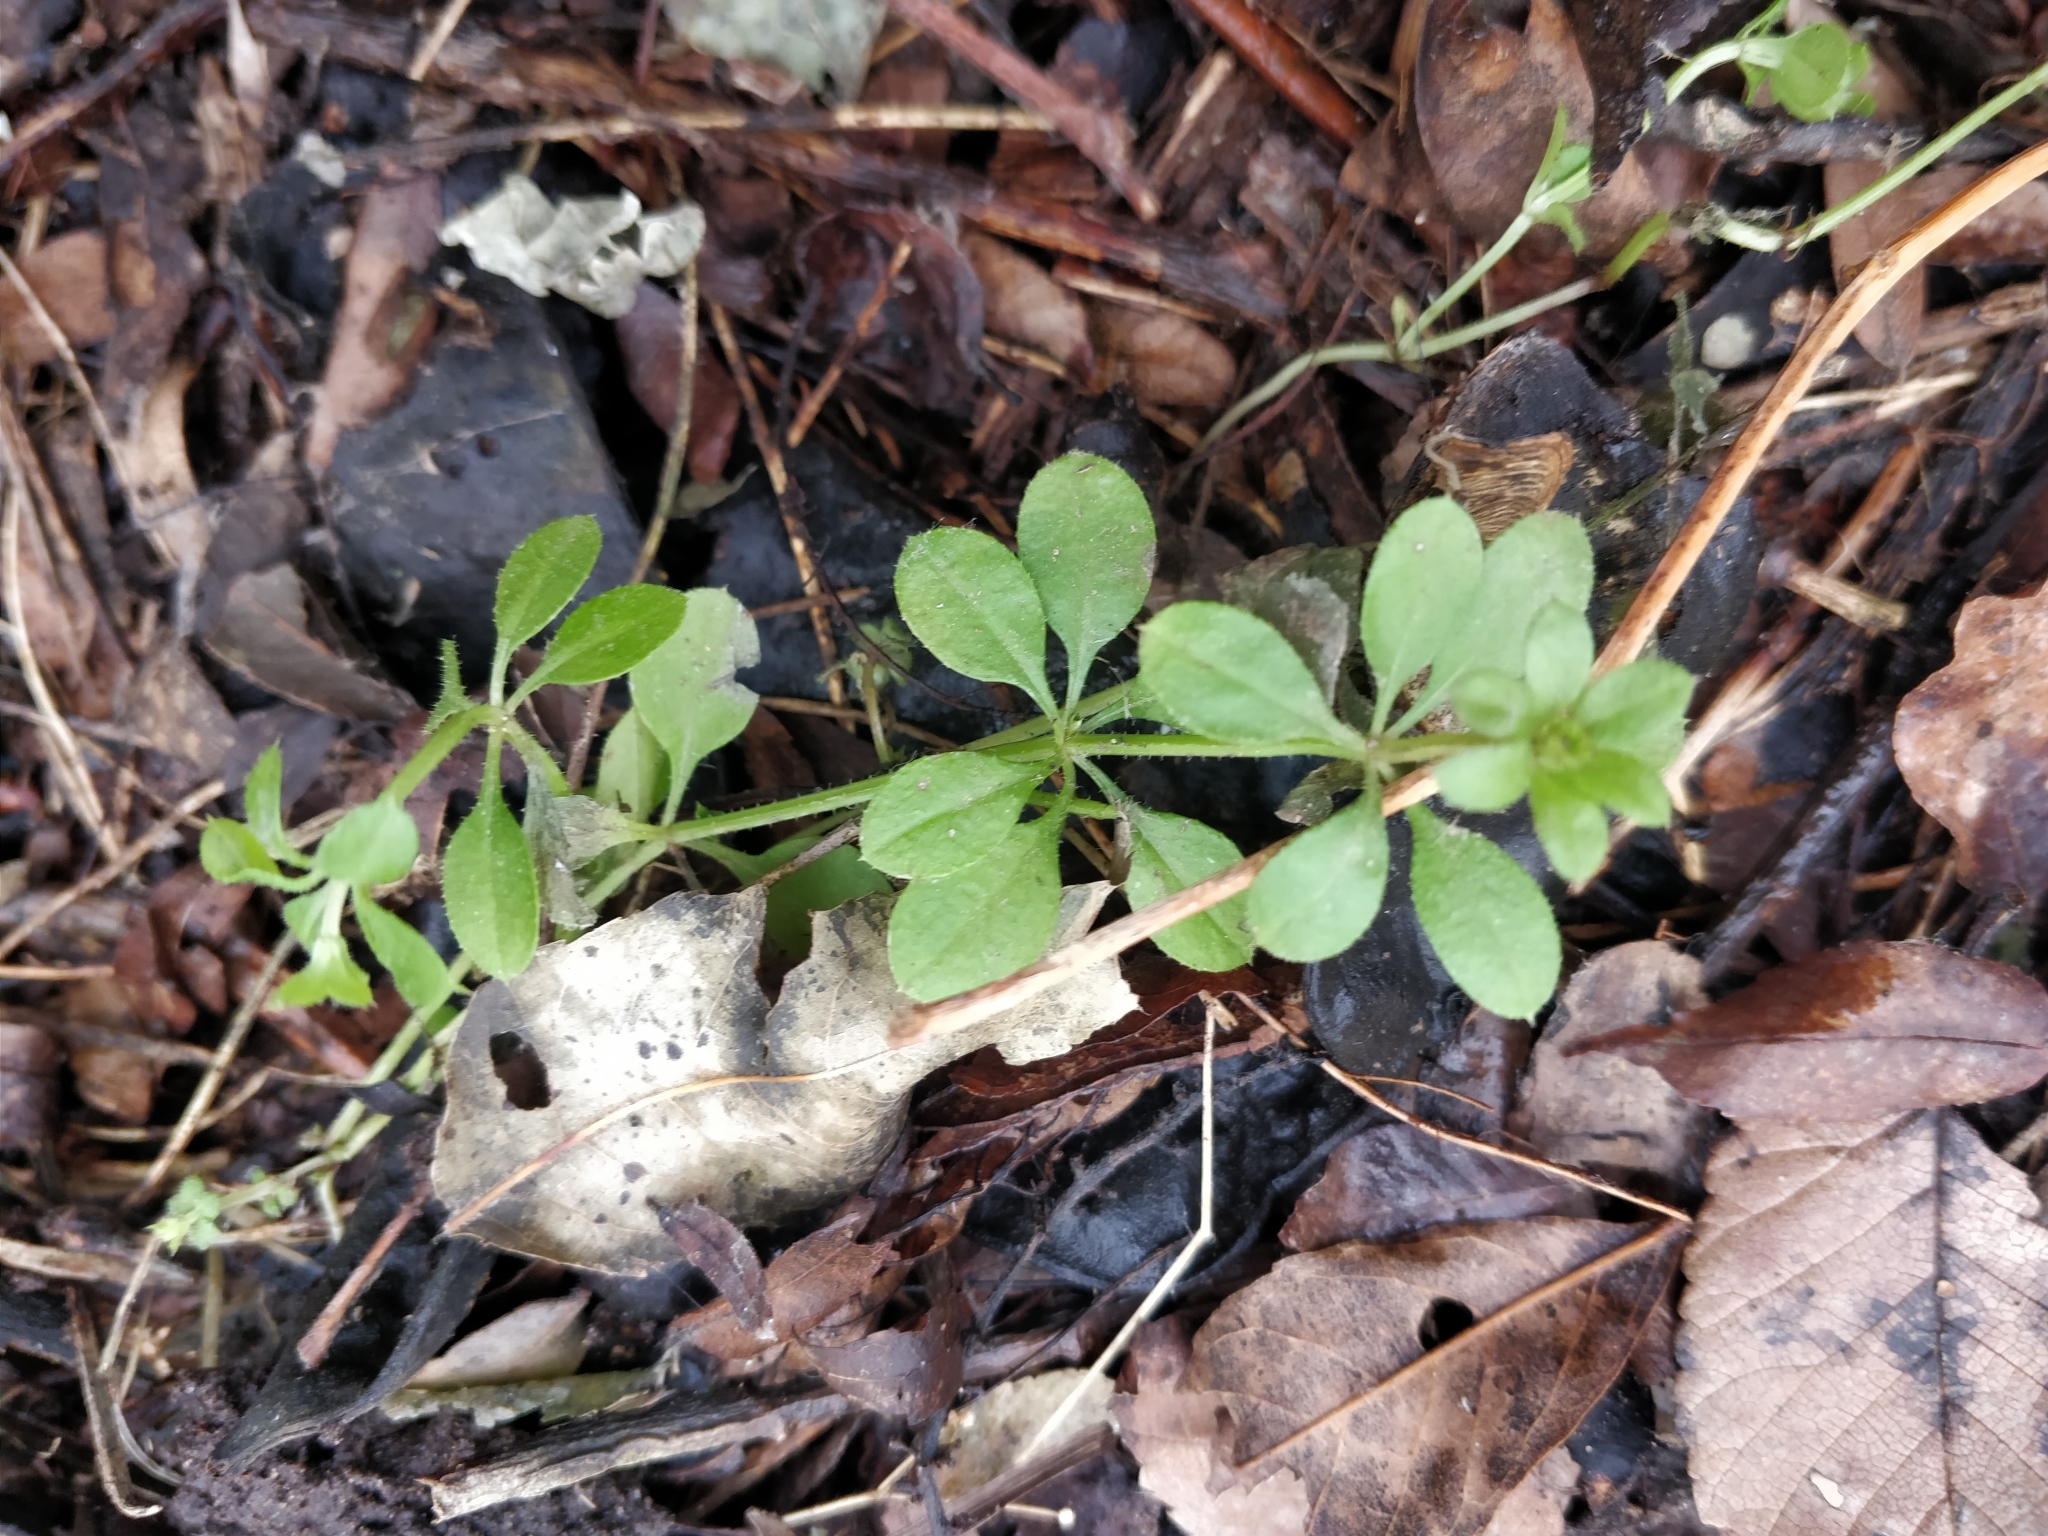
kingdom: Plantae
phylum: Tracheophyta
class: Magnoliopsida
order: Gentianales
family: Rubiaceae
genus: Galium
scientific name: Galium aparine
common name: Cleavers
